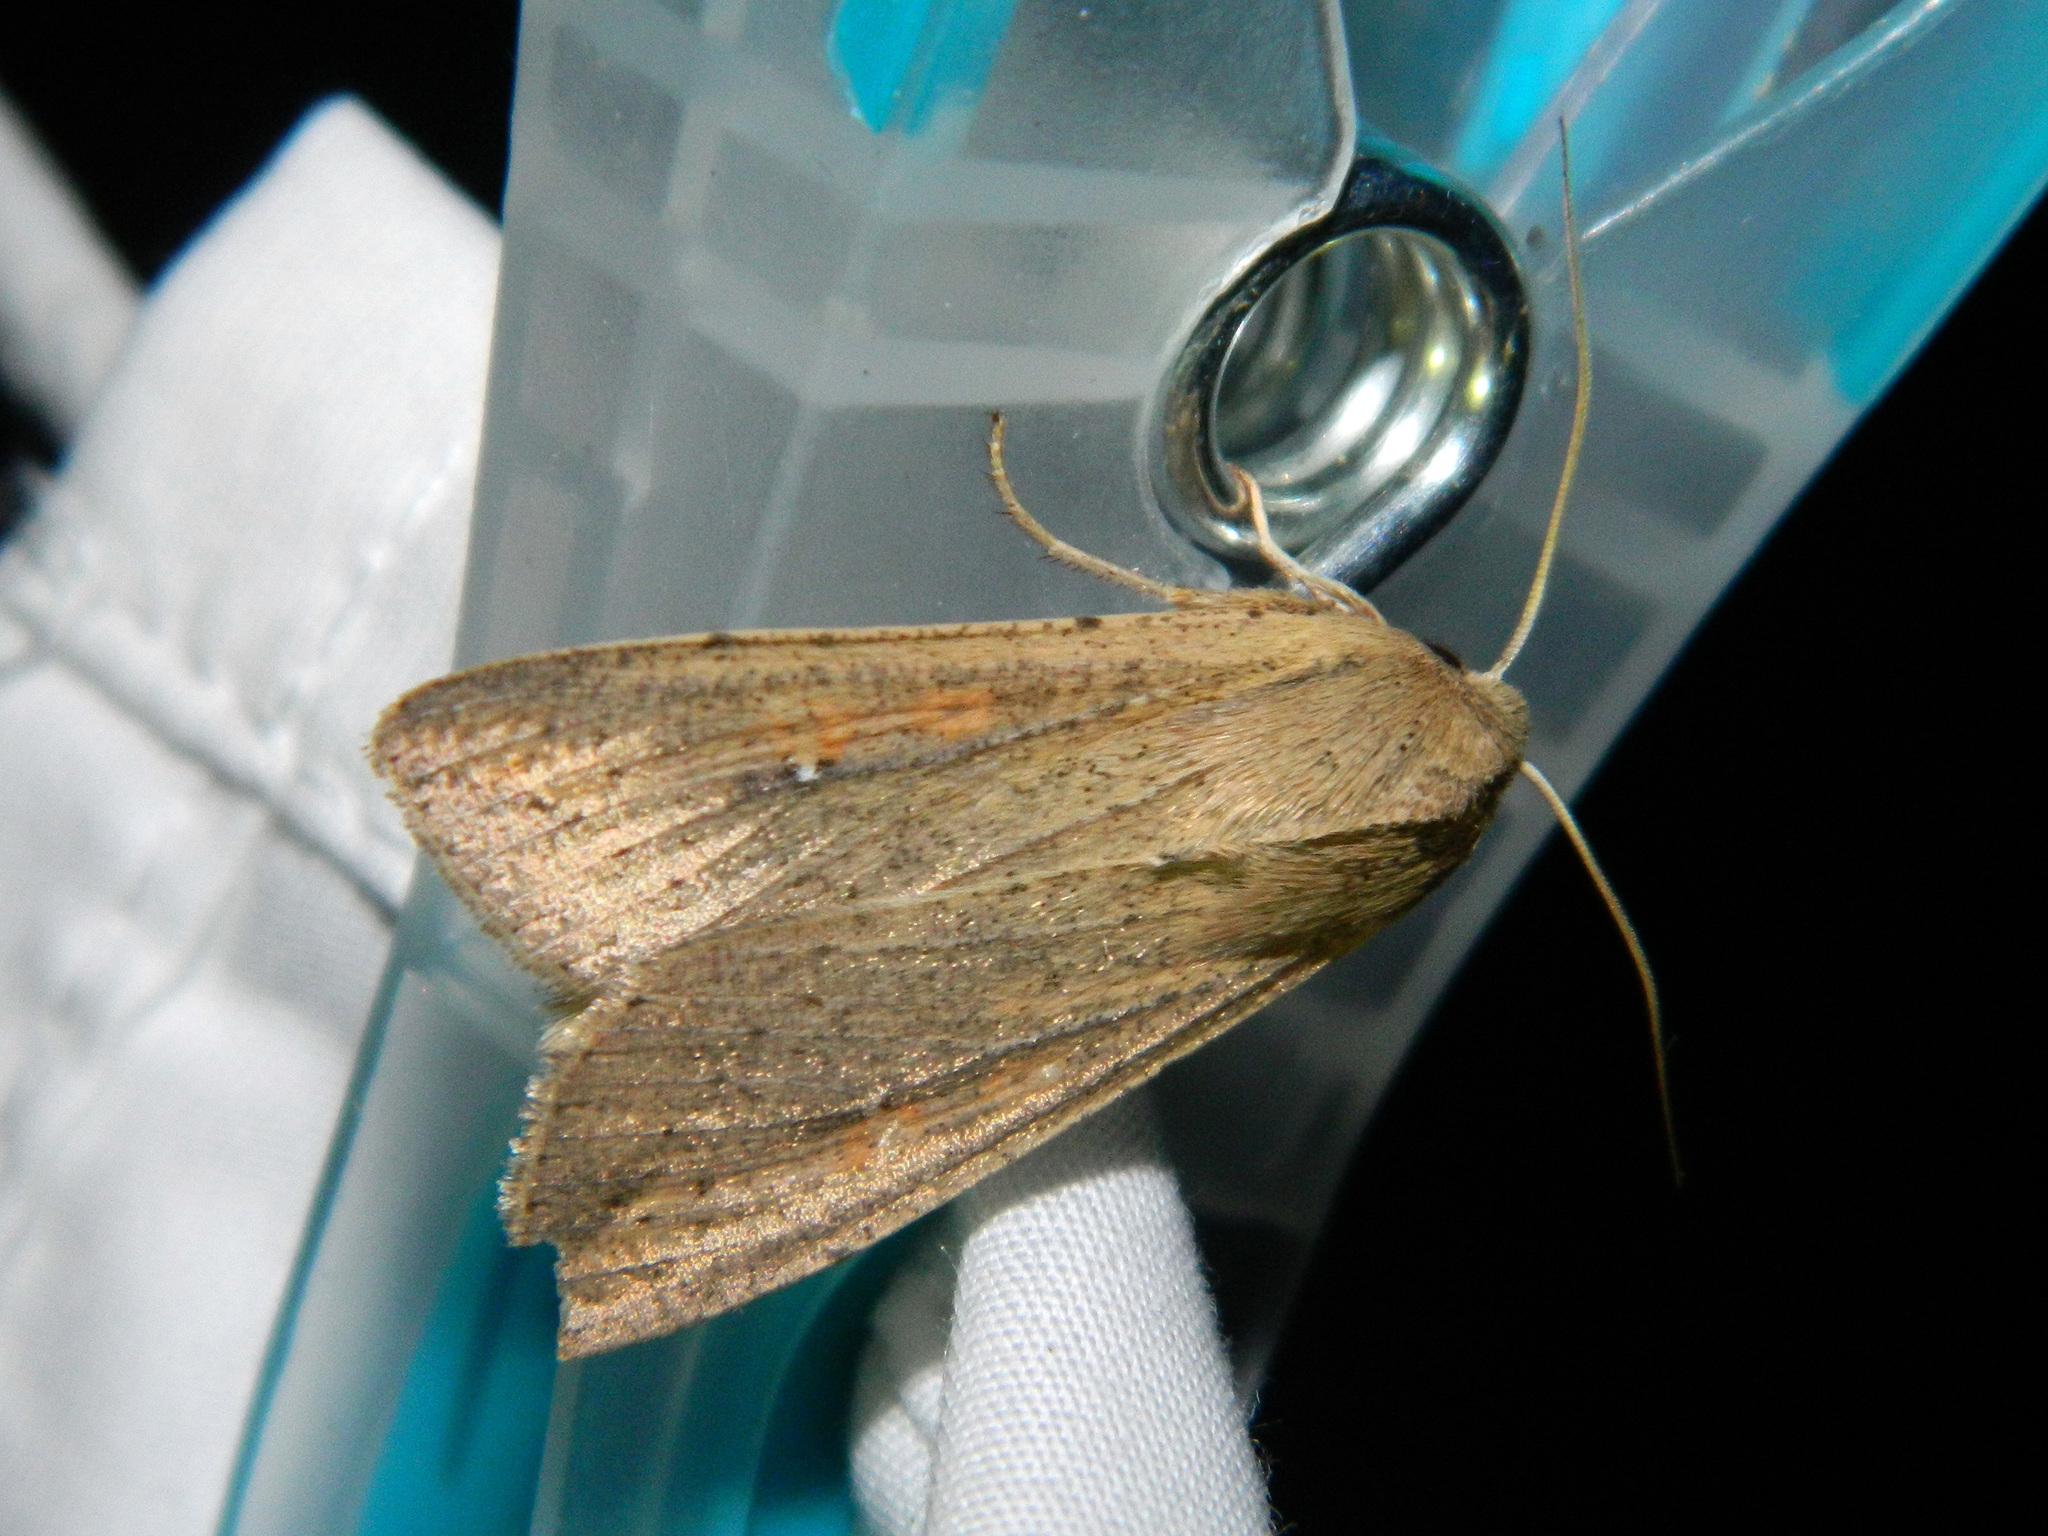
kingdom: Animalia
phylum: Arthropoda
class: Insecta
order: Lepidoptera
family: Noctuidae
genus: Mythimna
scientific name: Mythimna unipuncta
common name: White-speck
